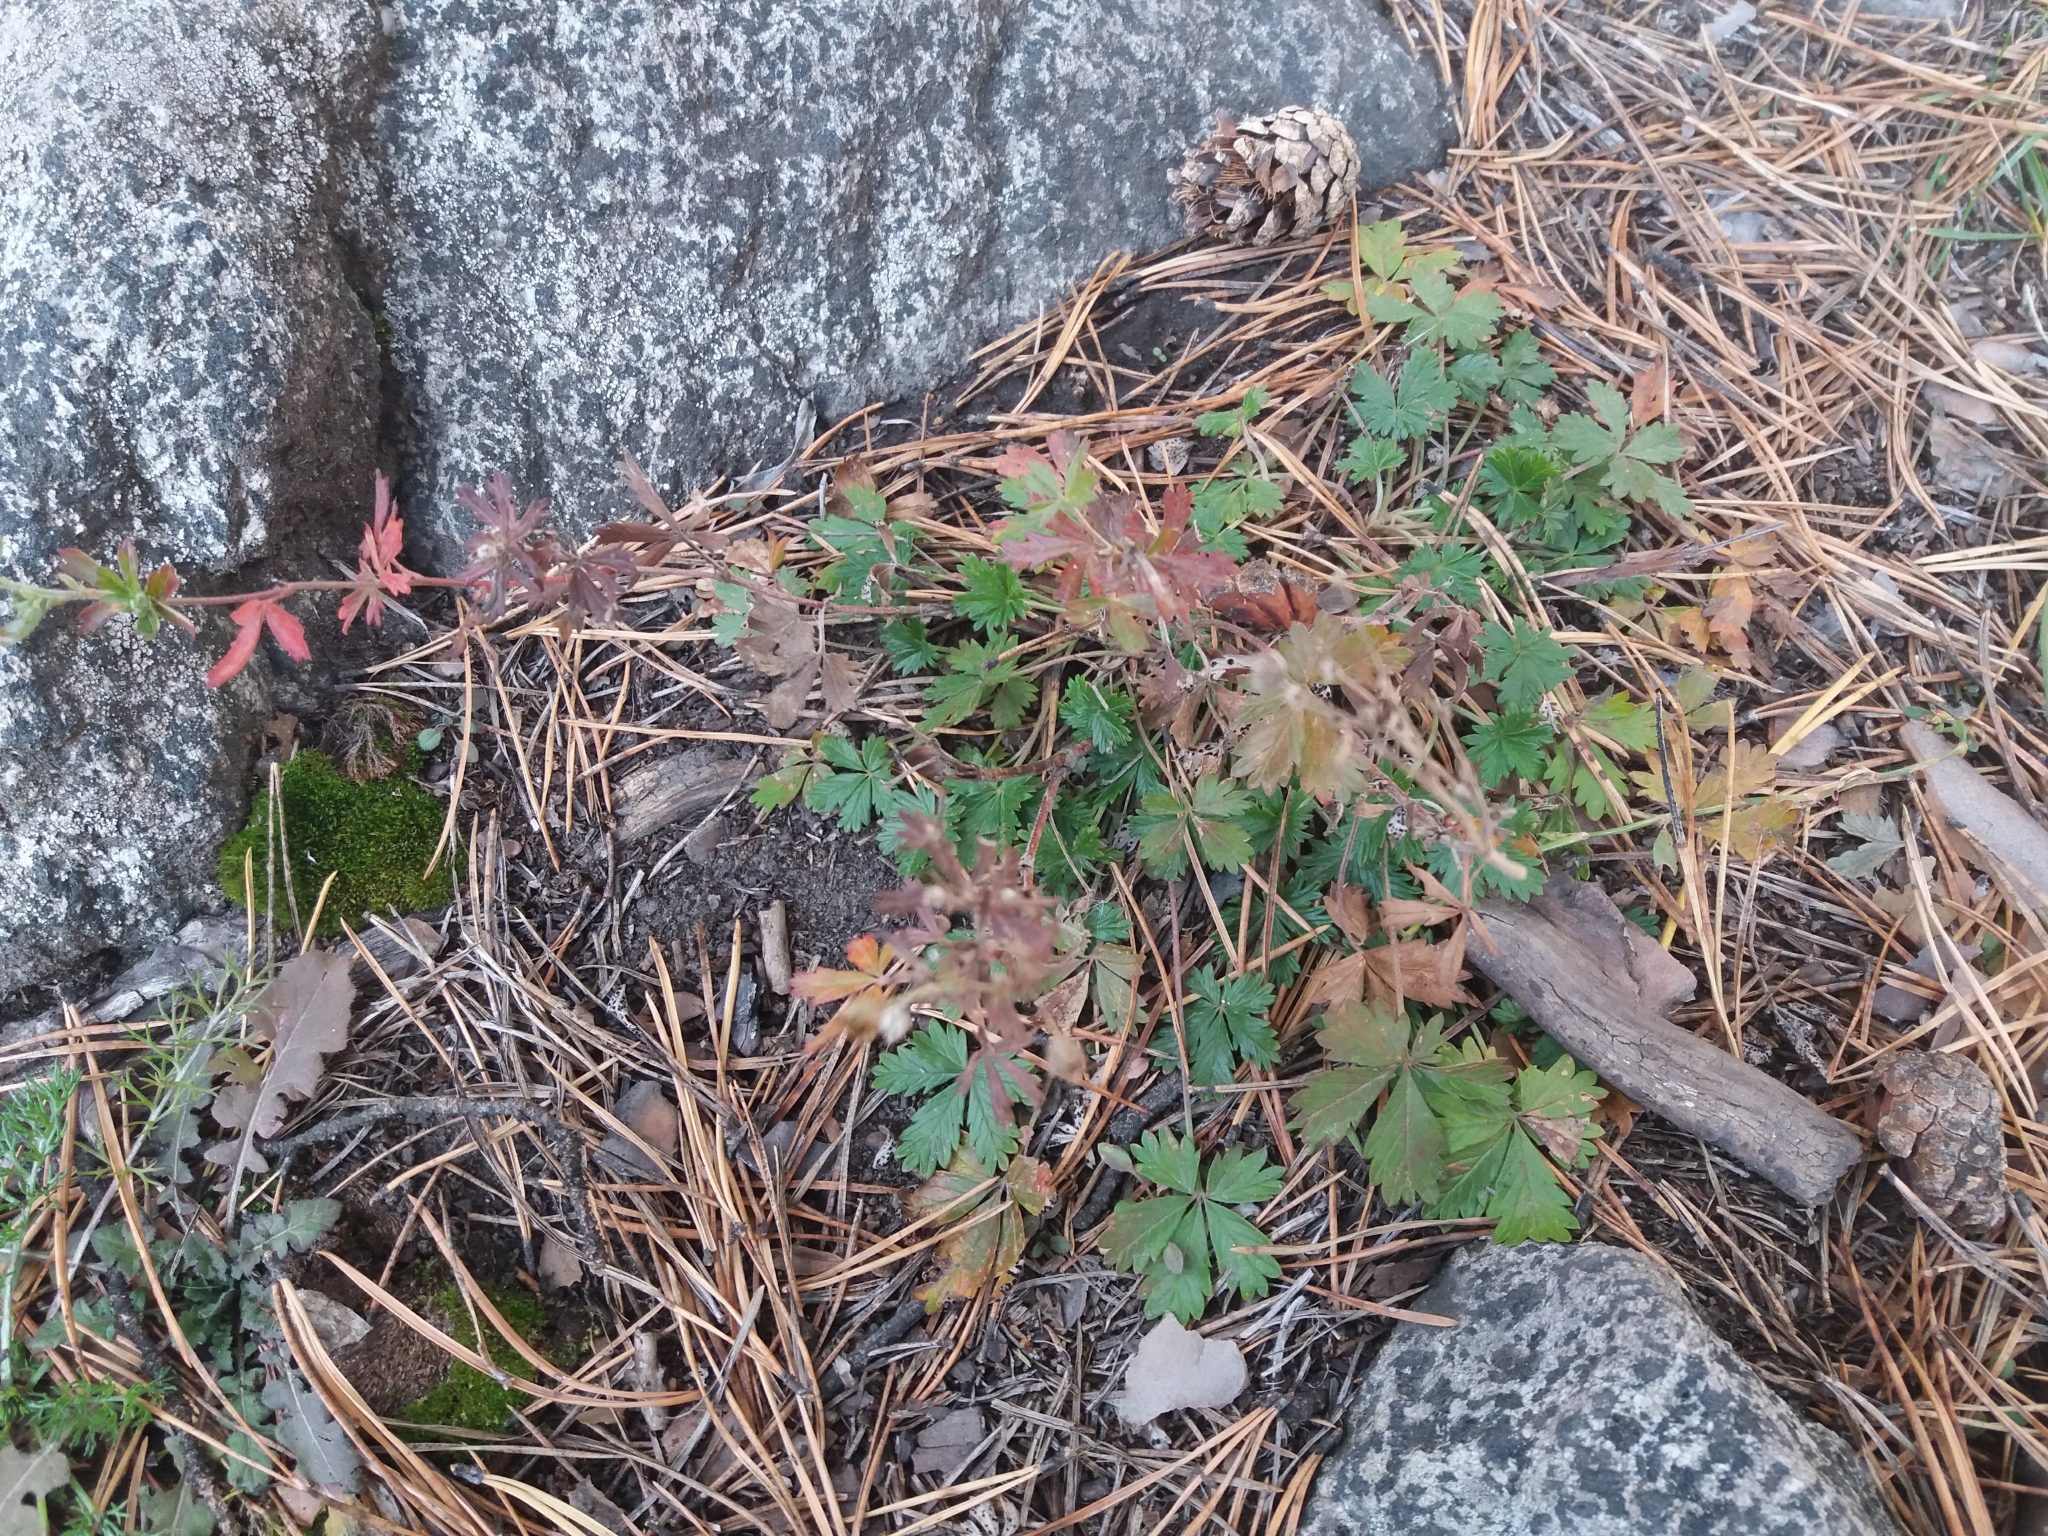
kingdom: Plantae
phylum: Tracheophyta
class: Magnoliopsida
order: Rosales
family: Rosaceae
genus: Potentilla
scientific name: Potentilla intermedia
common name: Downy cinquefoil
